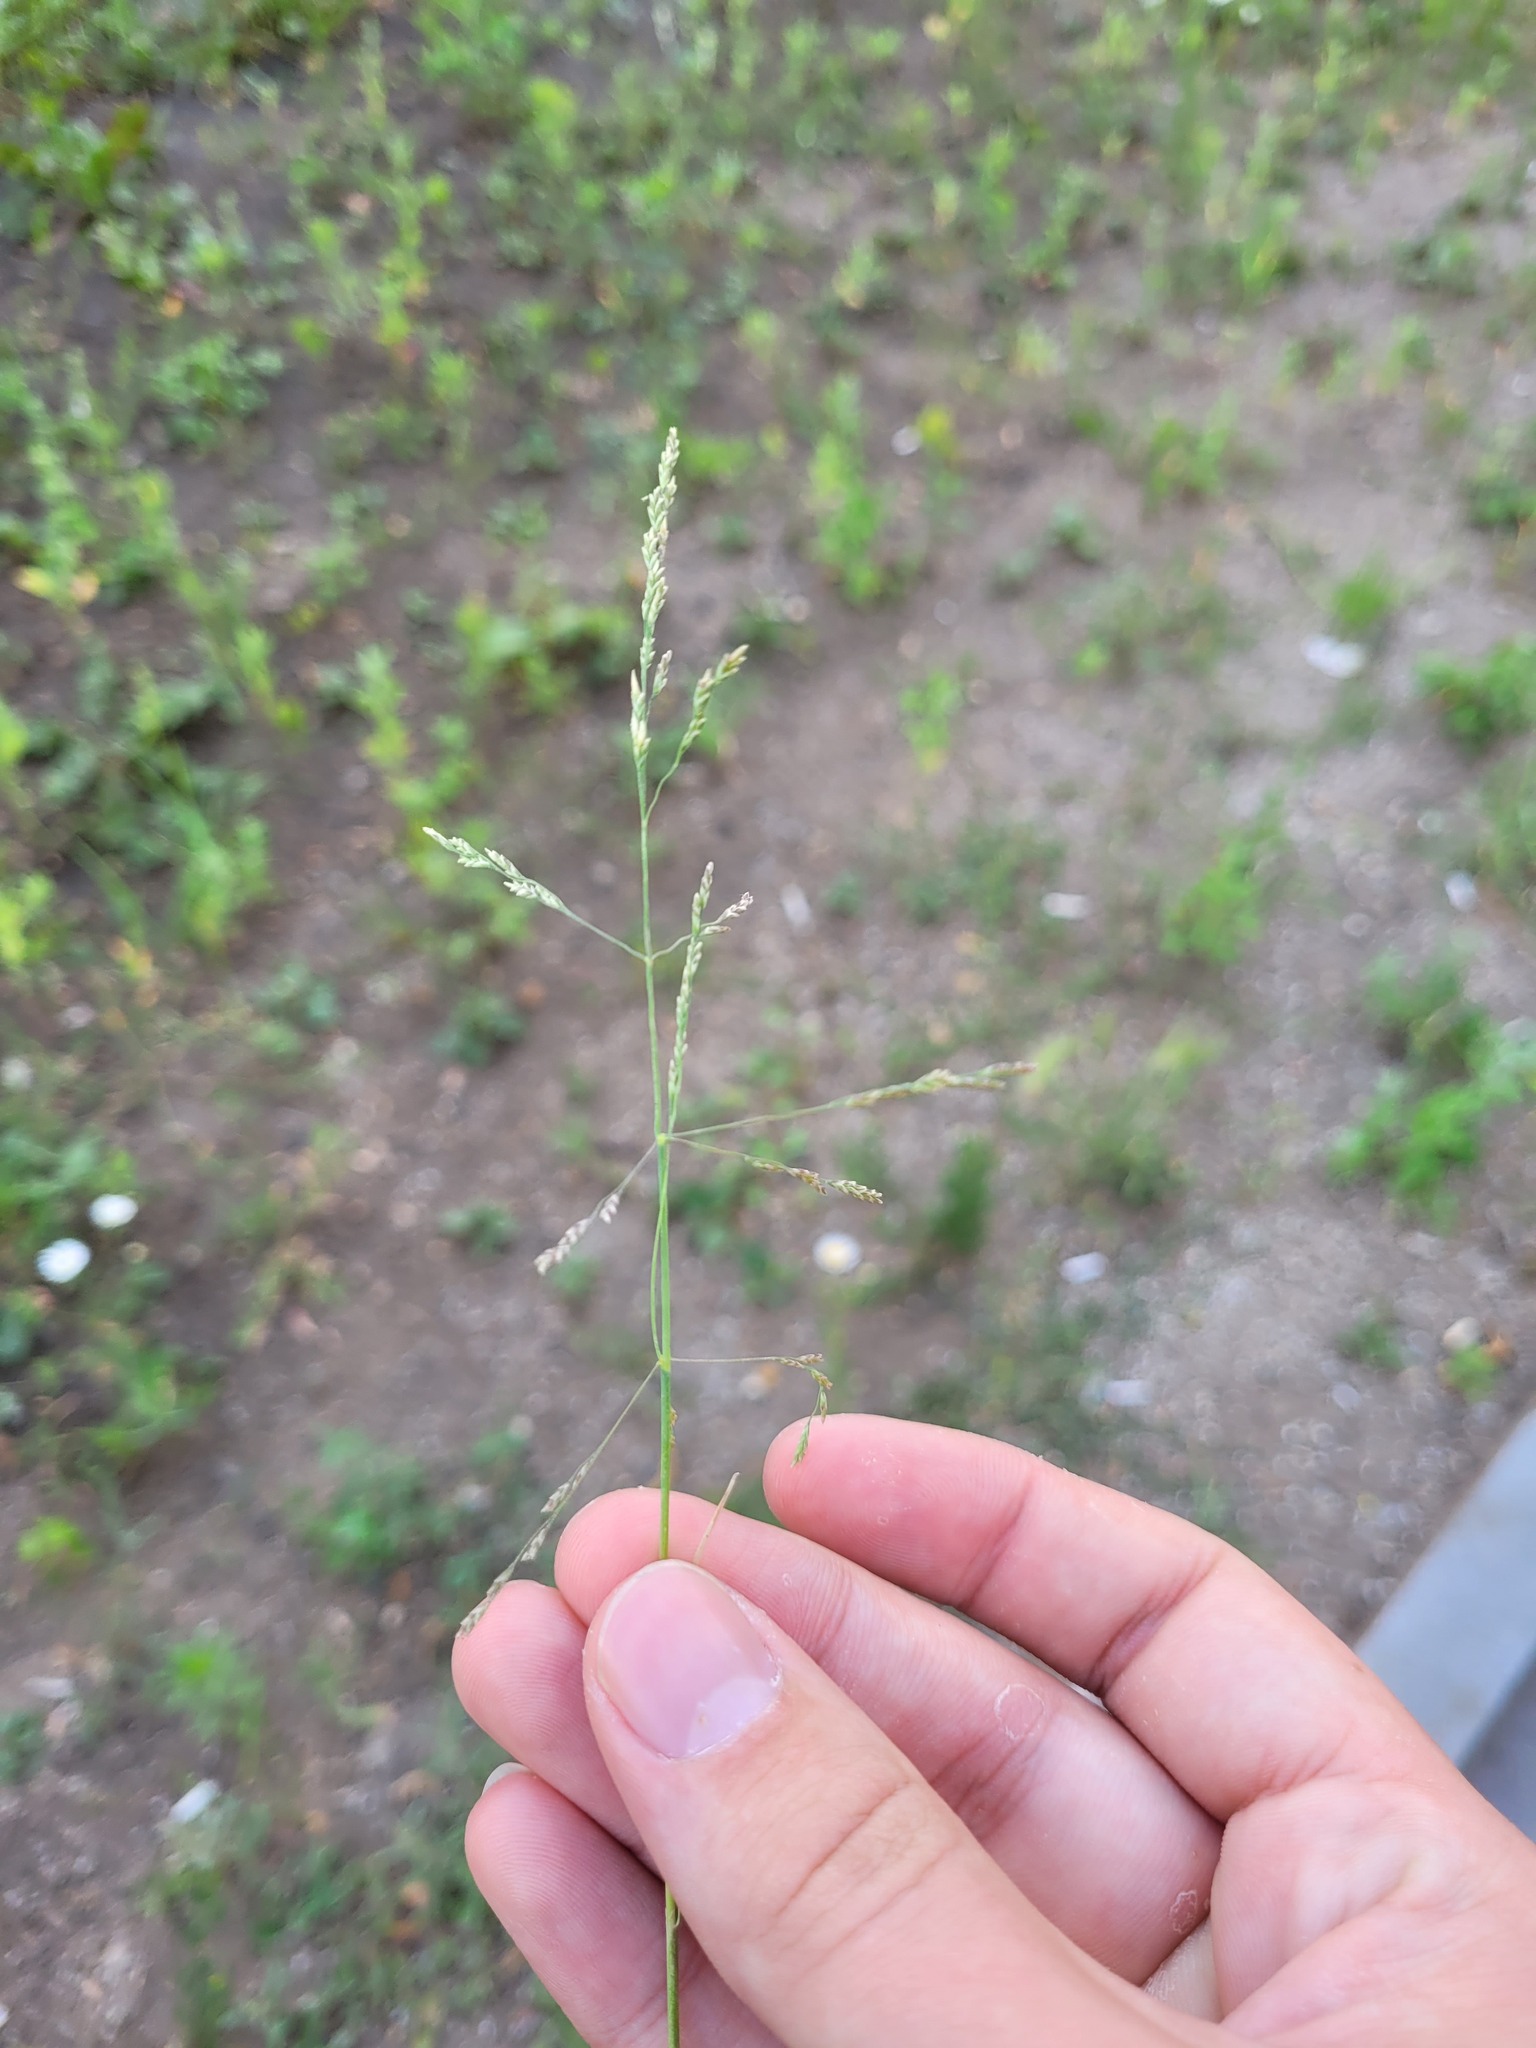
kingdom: Plantae
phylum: Tracheophyta
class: Liliopsida
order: Poales
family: Poaceae
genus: Puccinellia
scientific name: Puccinellia distans
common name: Weeping alkaligrass
